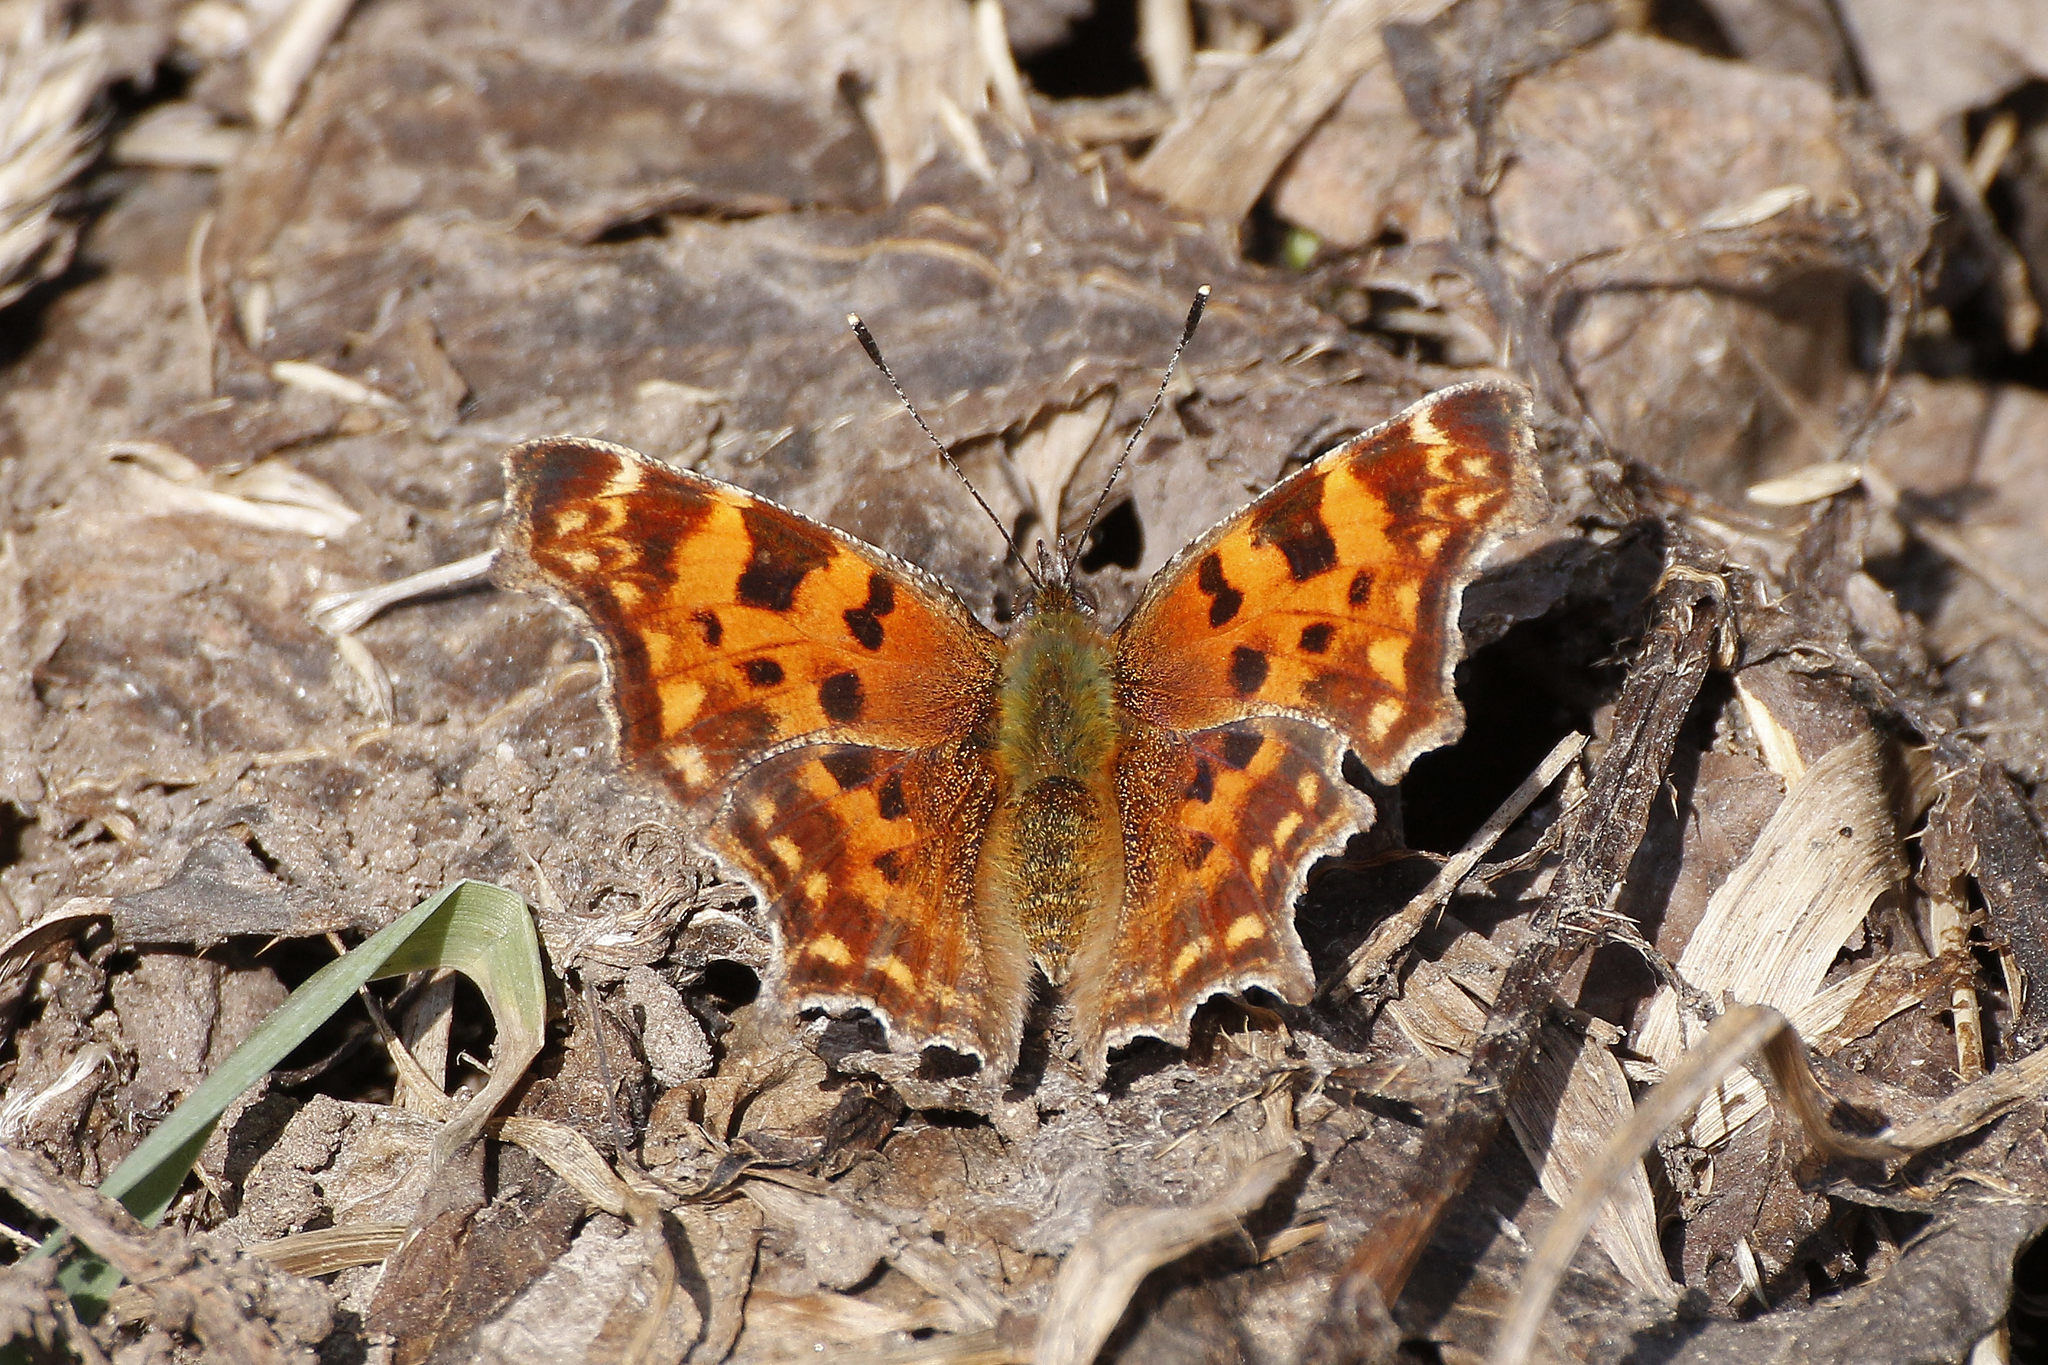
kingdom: Animalia
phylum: Arthropoda
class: Insecta
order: Lepidoptera
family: Nymphalidae
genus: Polygonia
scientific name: Polygonia c-album
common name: Comma
